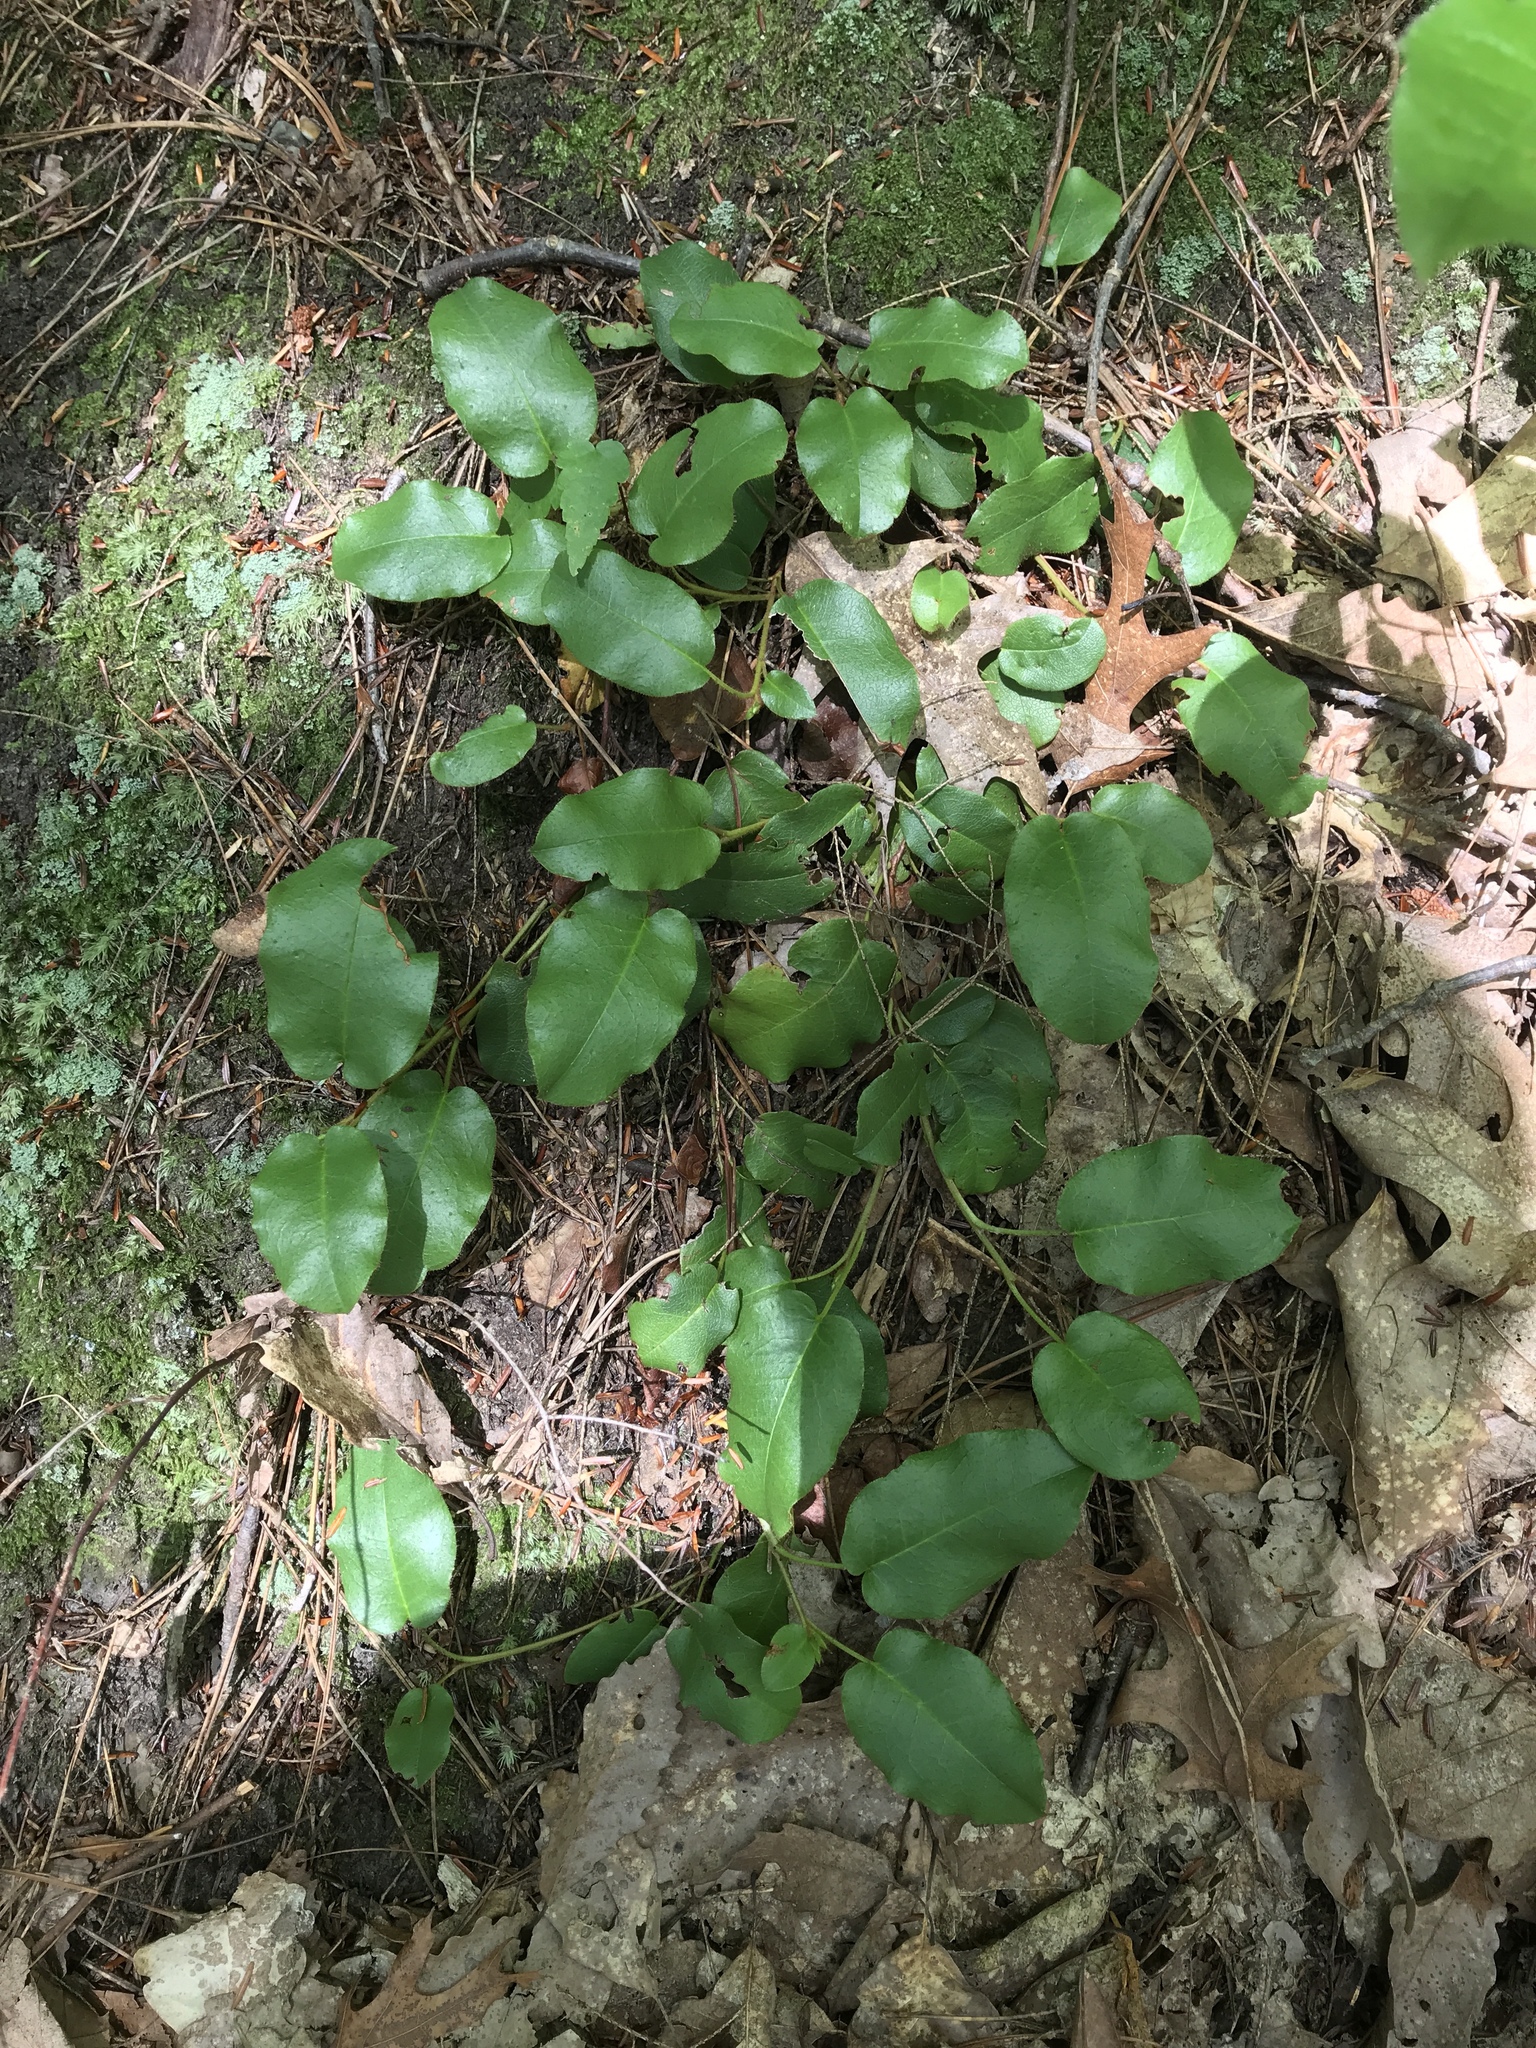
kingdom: Plantae
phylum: Tracheophyta
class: Magnoliopsida
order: Ericales
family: Ericaceae
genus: Epigaea
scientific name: Epigaea repens
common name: Gravelroot
